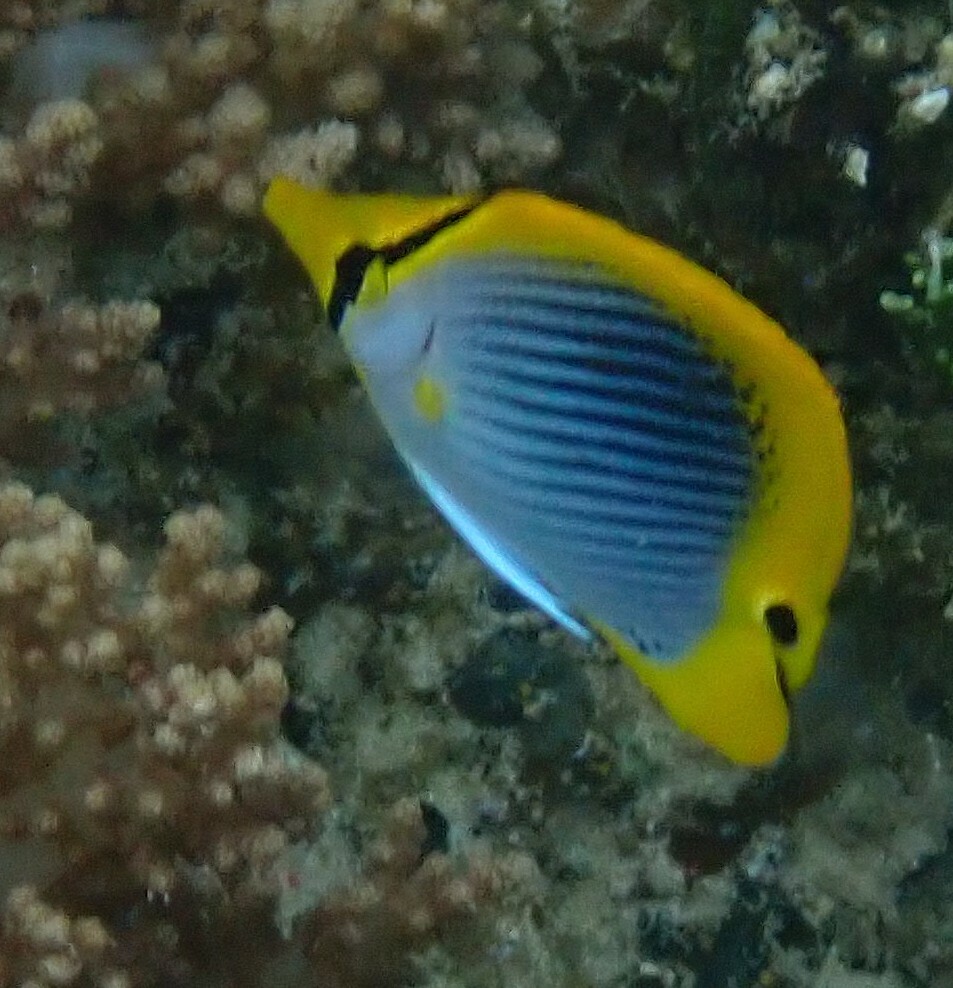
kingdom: Animalia
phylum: Chordata
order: Perciformes
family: Chaetodontidae
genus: Chaetodon
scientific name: Chaetodon ocellicaudus
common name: Spot-tail butterflyfish
